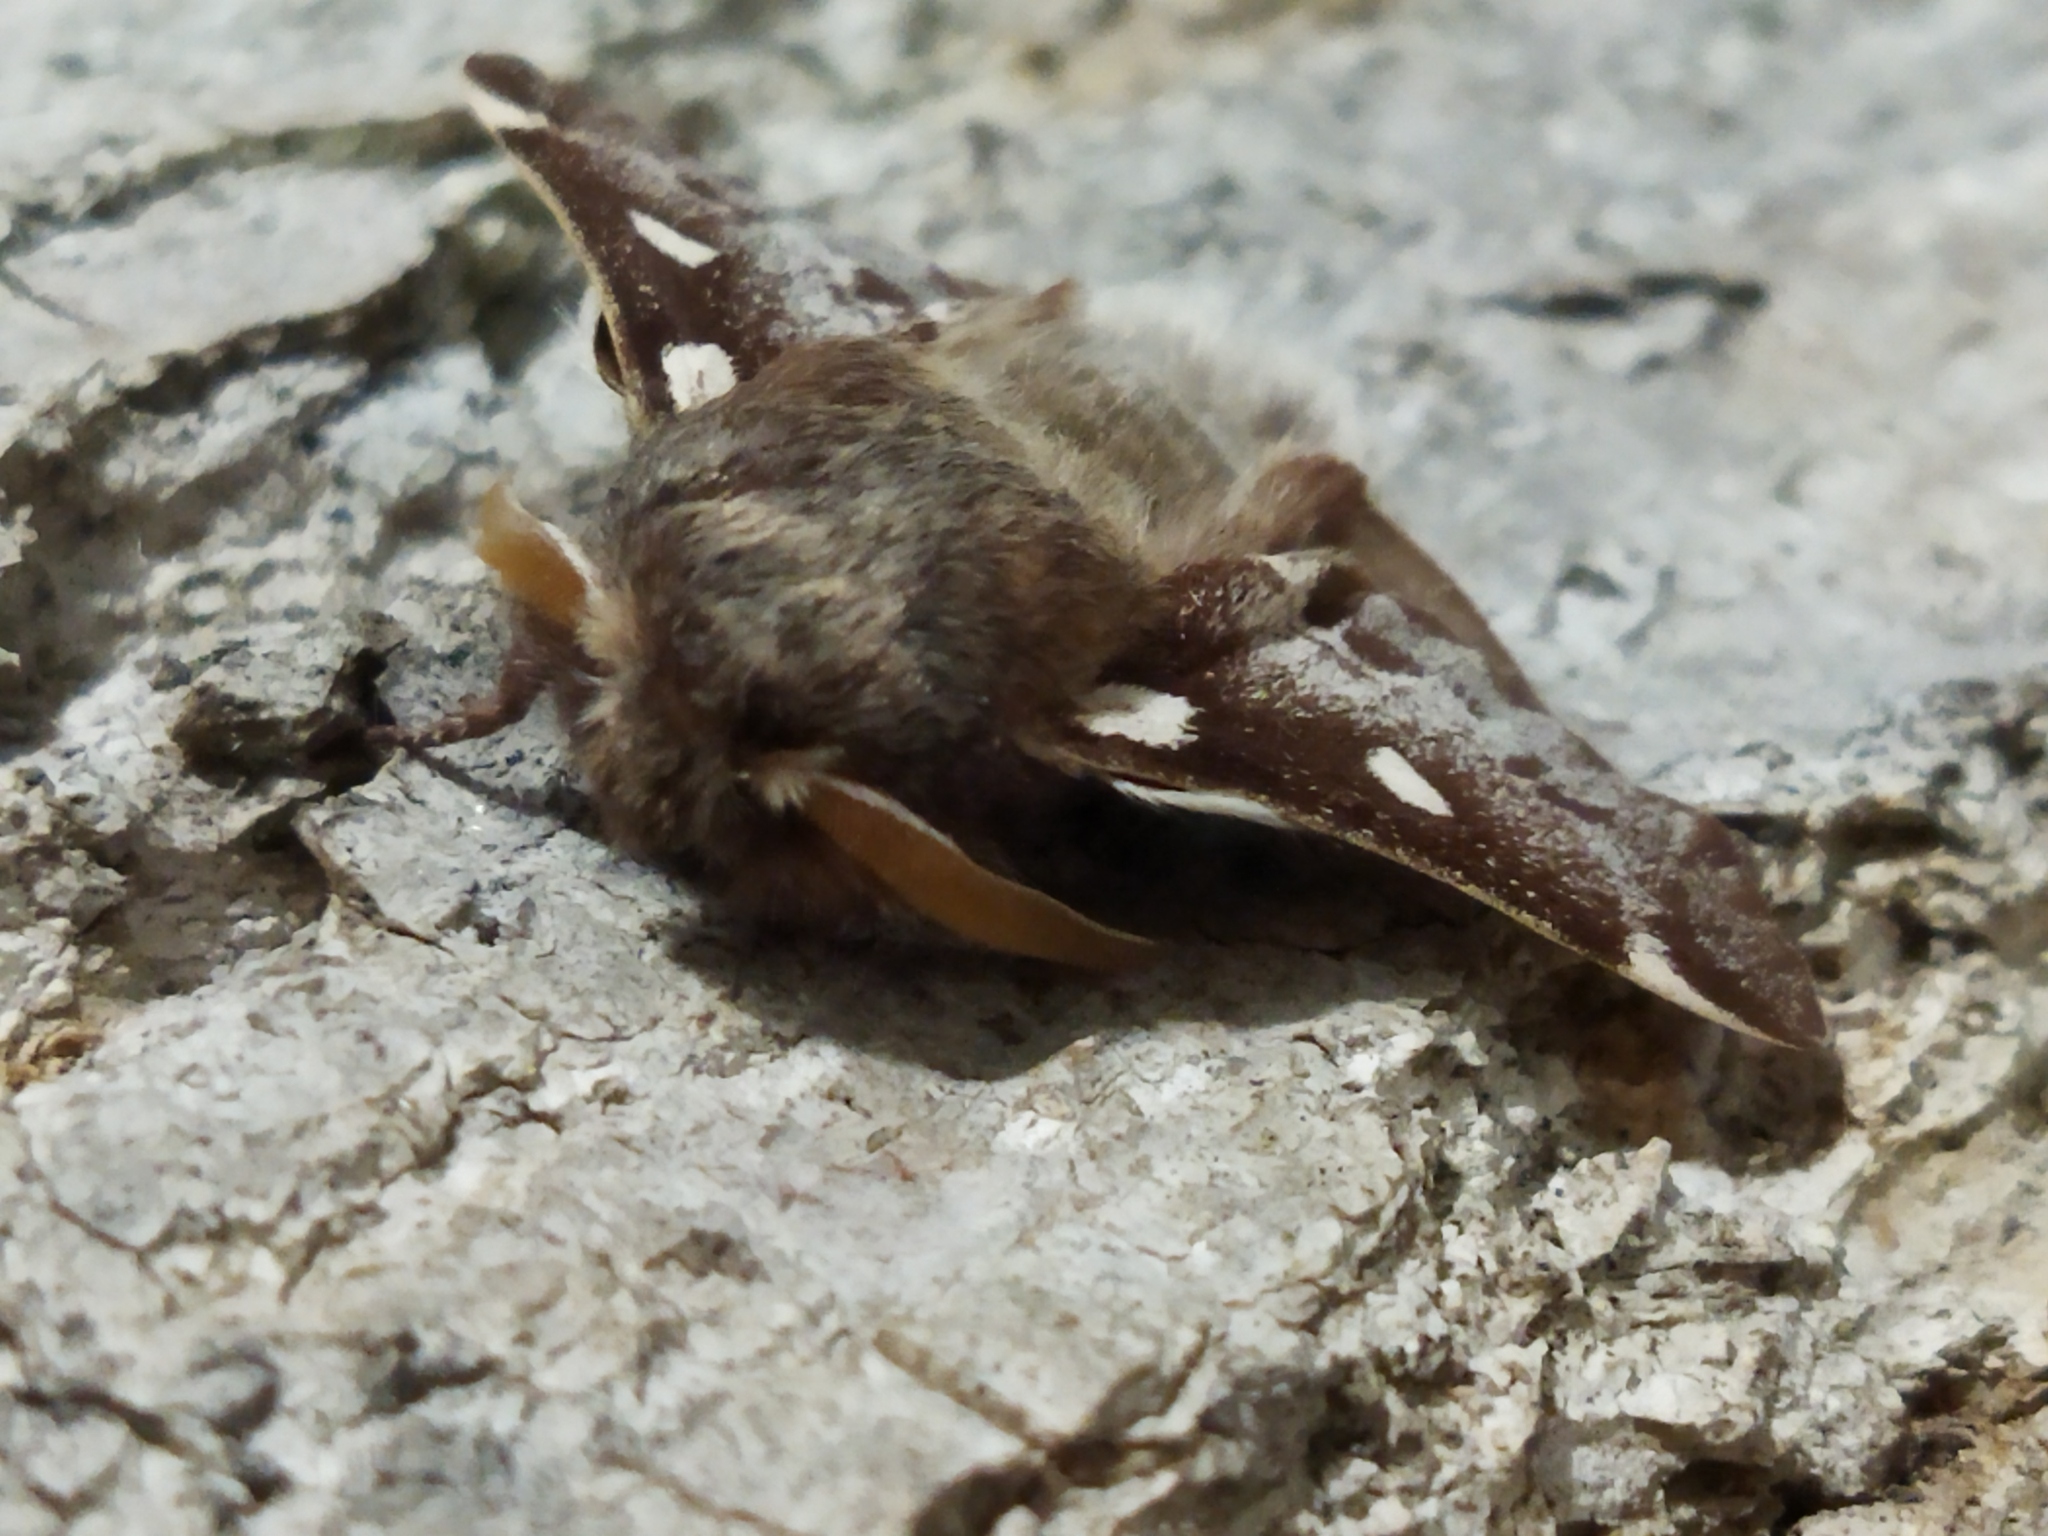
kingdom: Animalia
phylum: Arthropoda
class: Insecta
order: Lepidoptera
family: Lasiocampidae
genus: Eriogaster
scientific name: Eriogaster lanestris
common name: Small eggar
